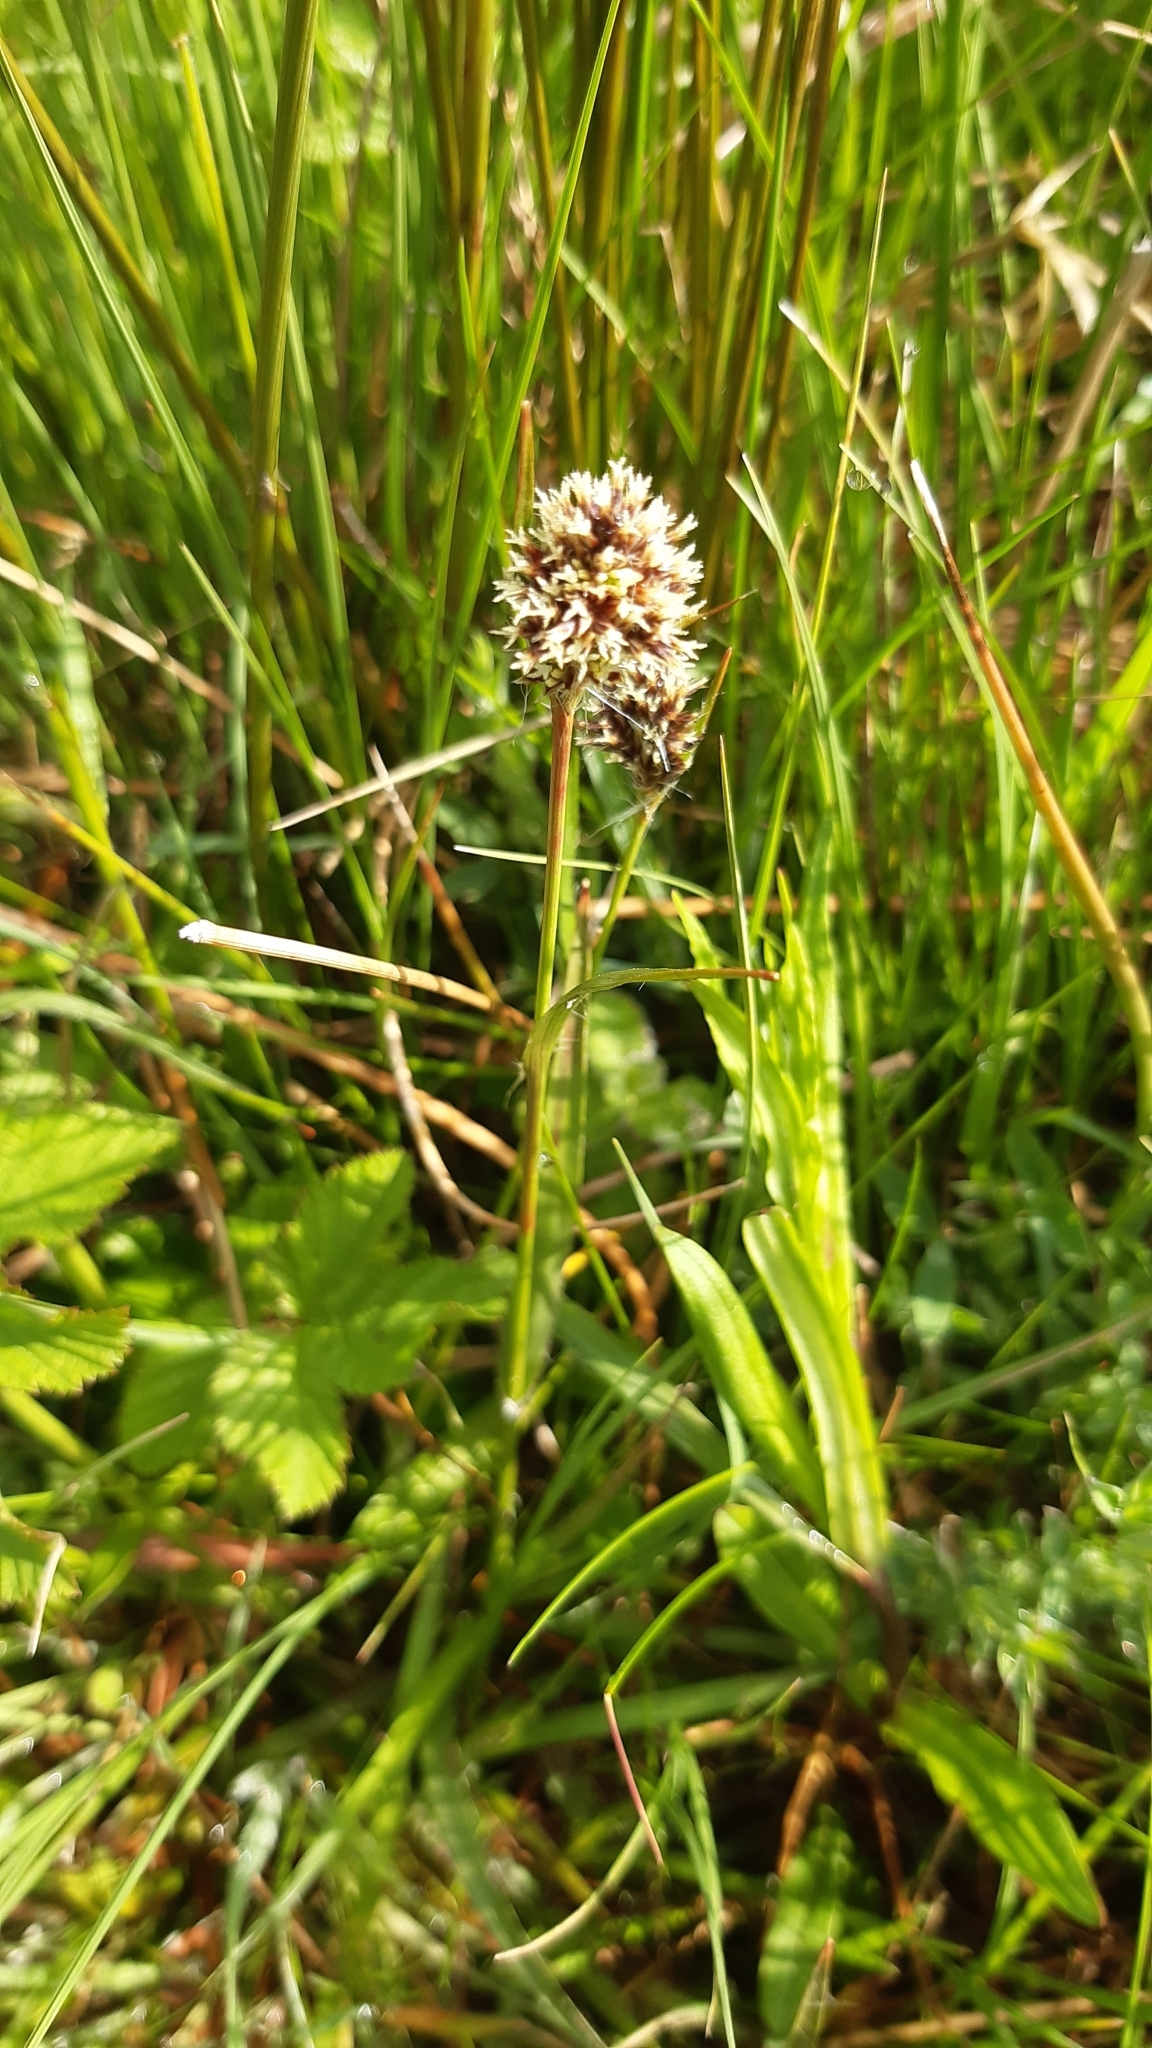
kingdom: Plantae
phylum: Tracheophyta
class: Liliopsida
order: Poales
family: Juncaceae
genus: Luzula
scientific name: Luzula campestris
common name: Field wood-rush
